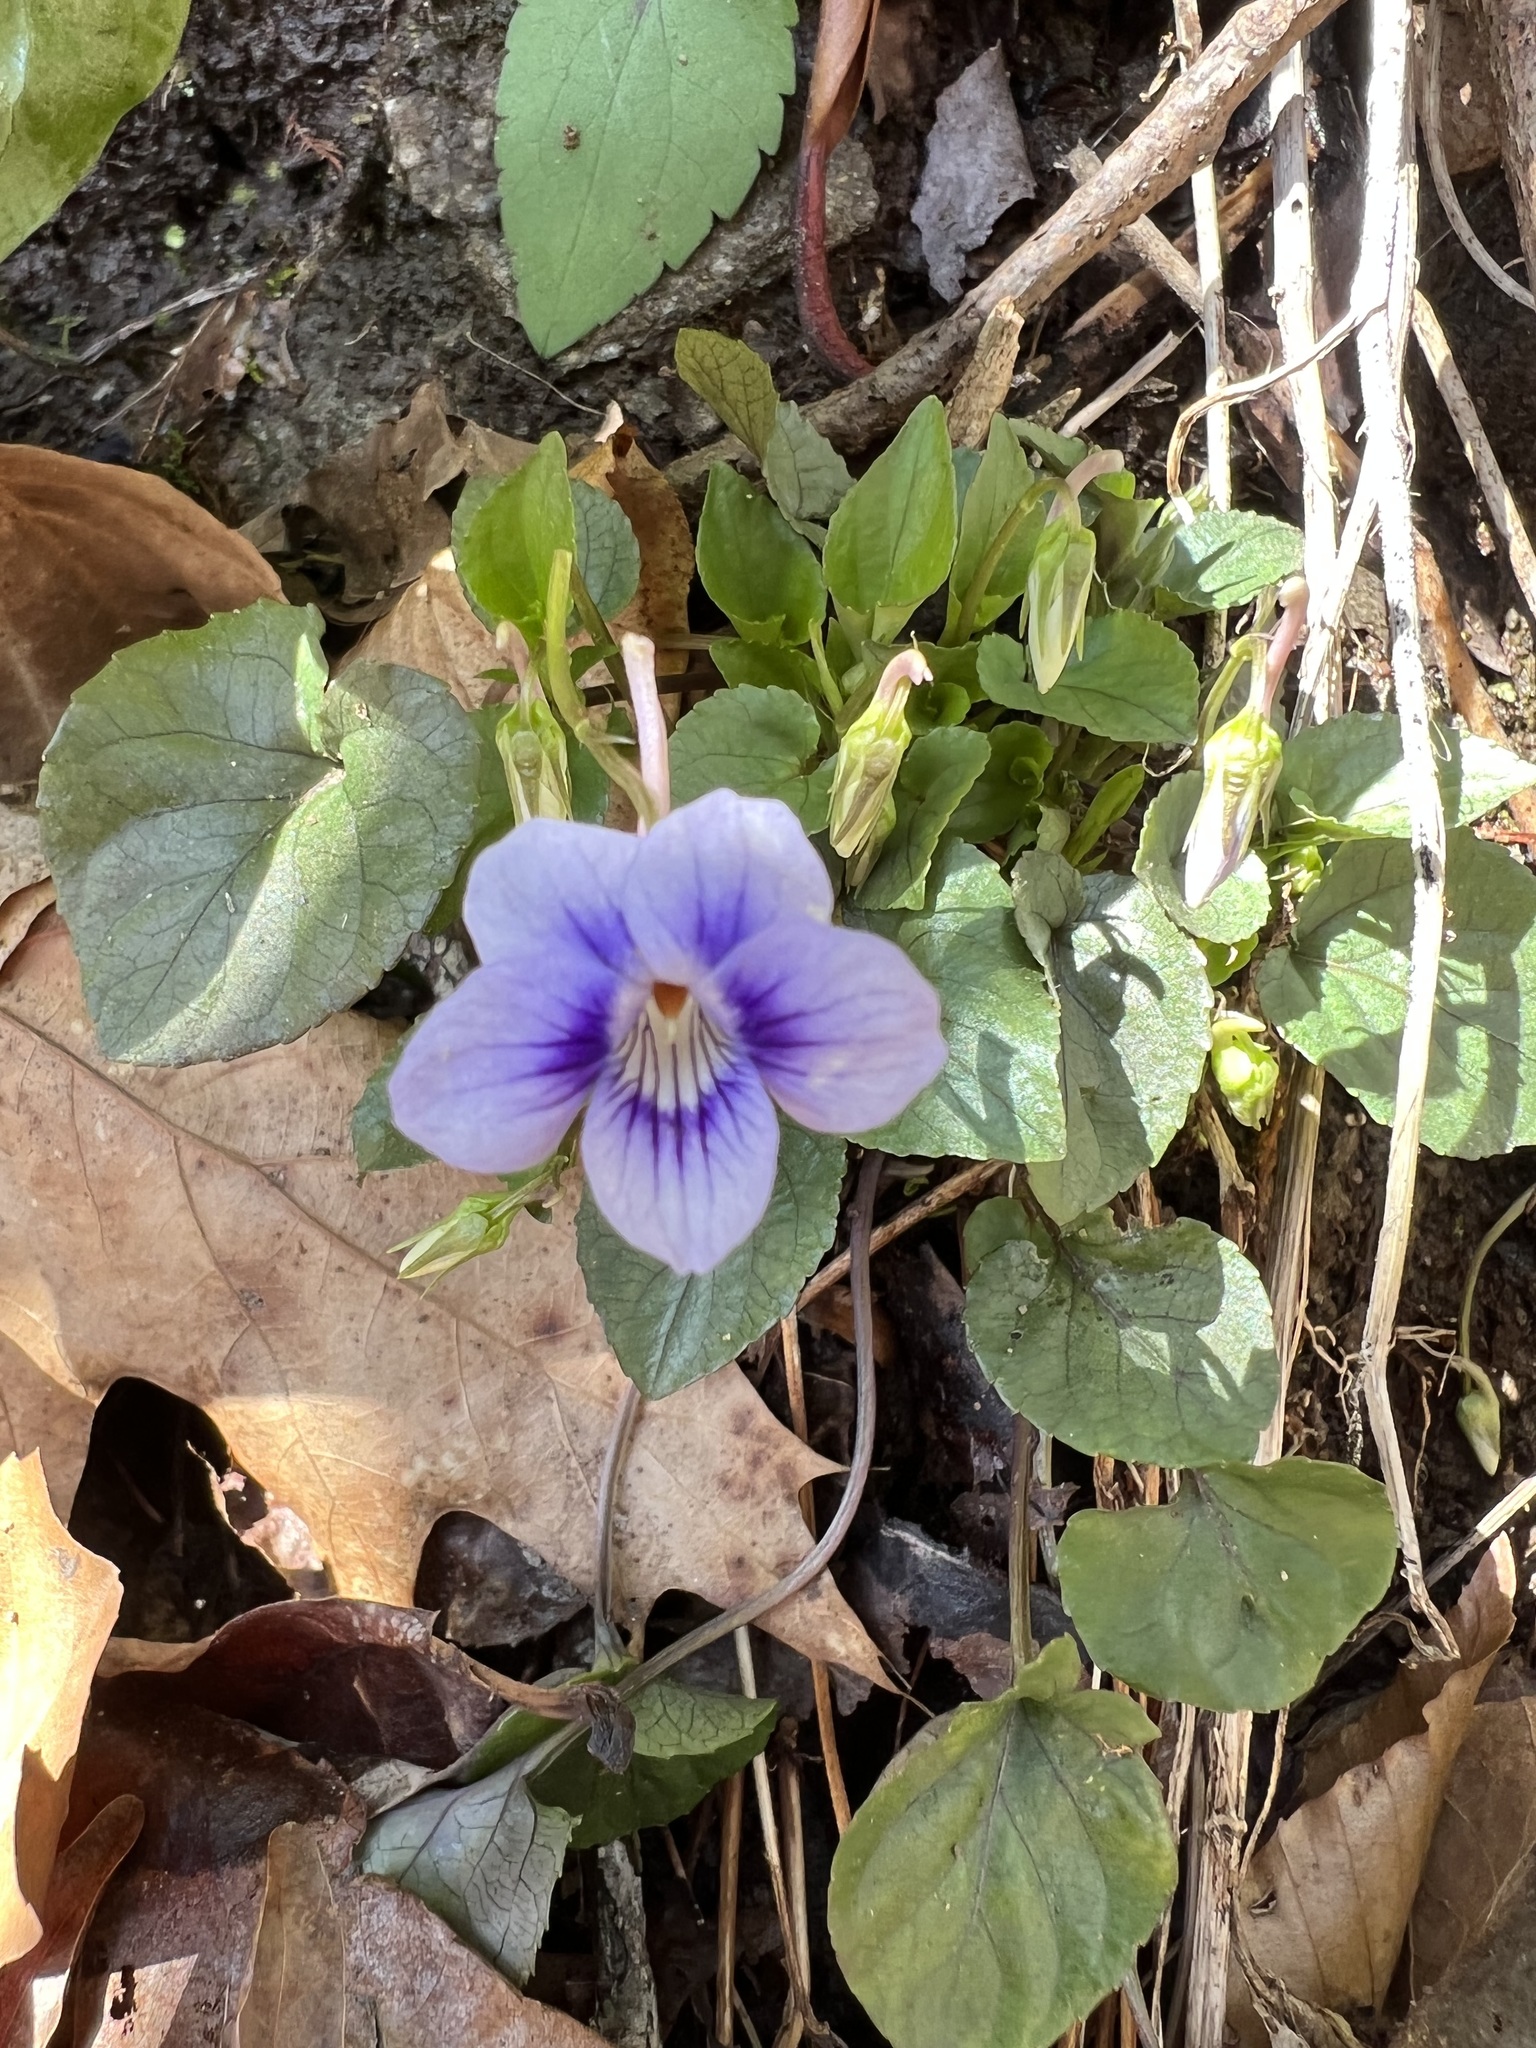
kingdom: Plantae
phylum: Tracheophyta
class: Magnoliopsida
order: Malpighiales
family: Violaceae
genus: Viola
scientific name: Viola rostrata
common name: Long-spur violet
